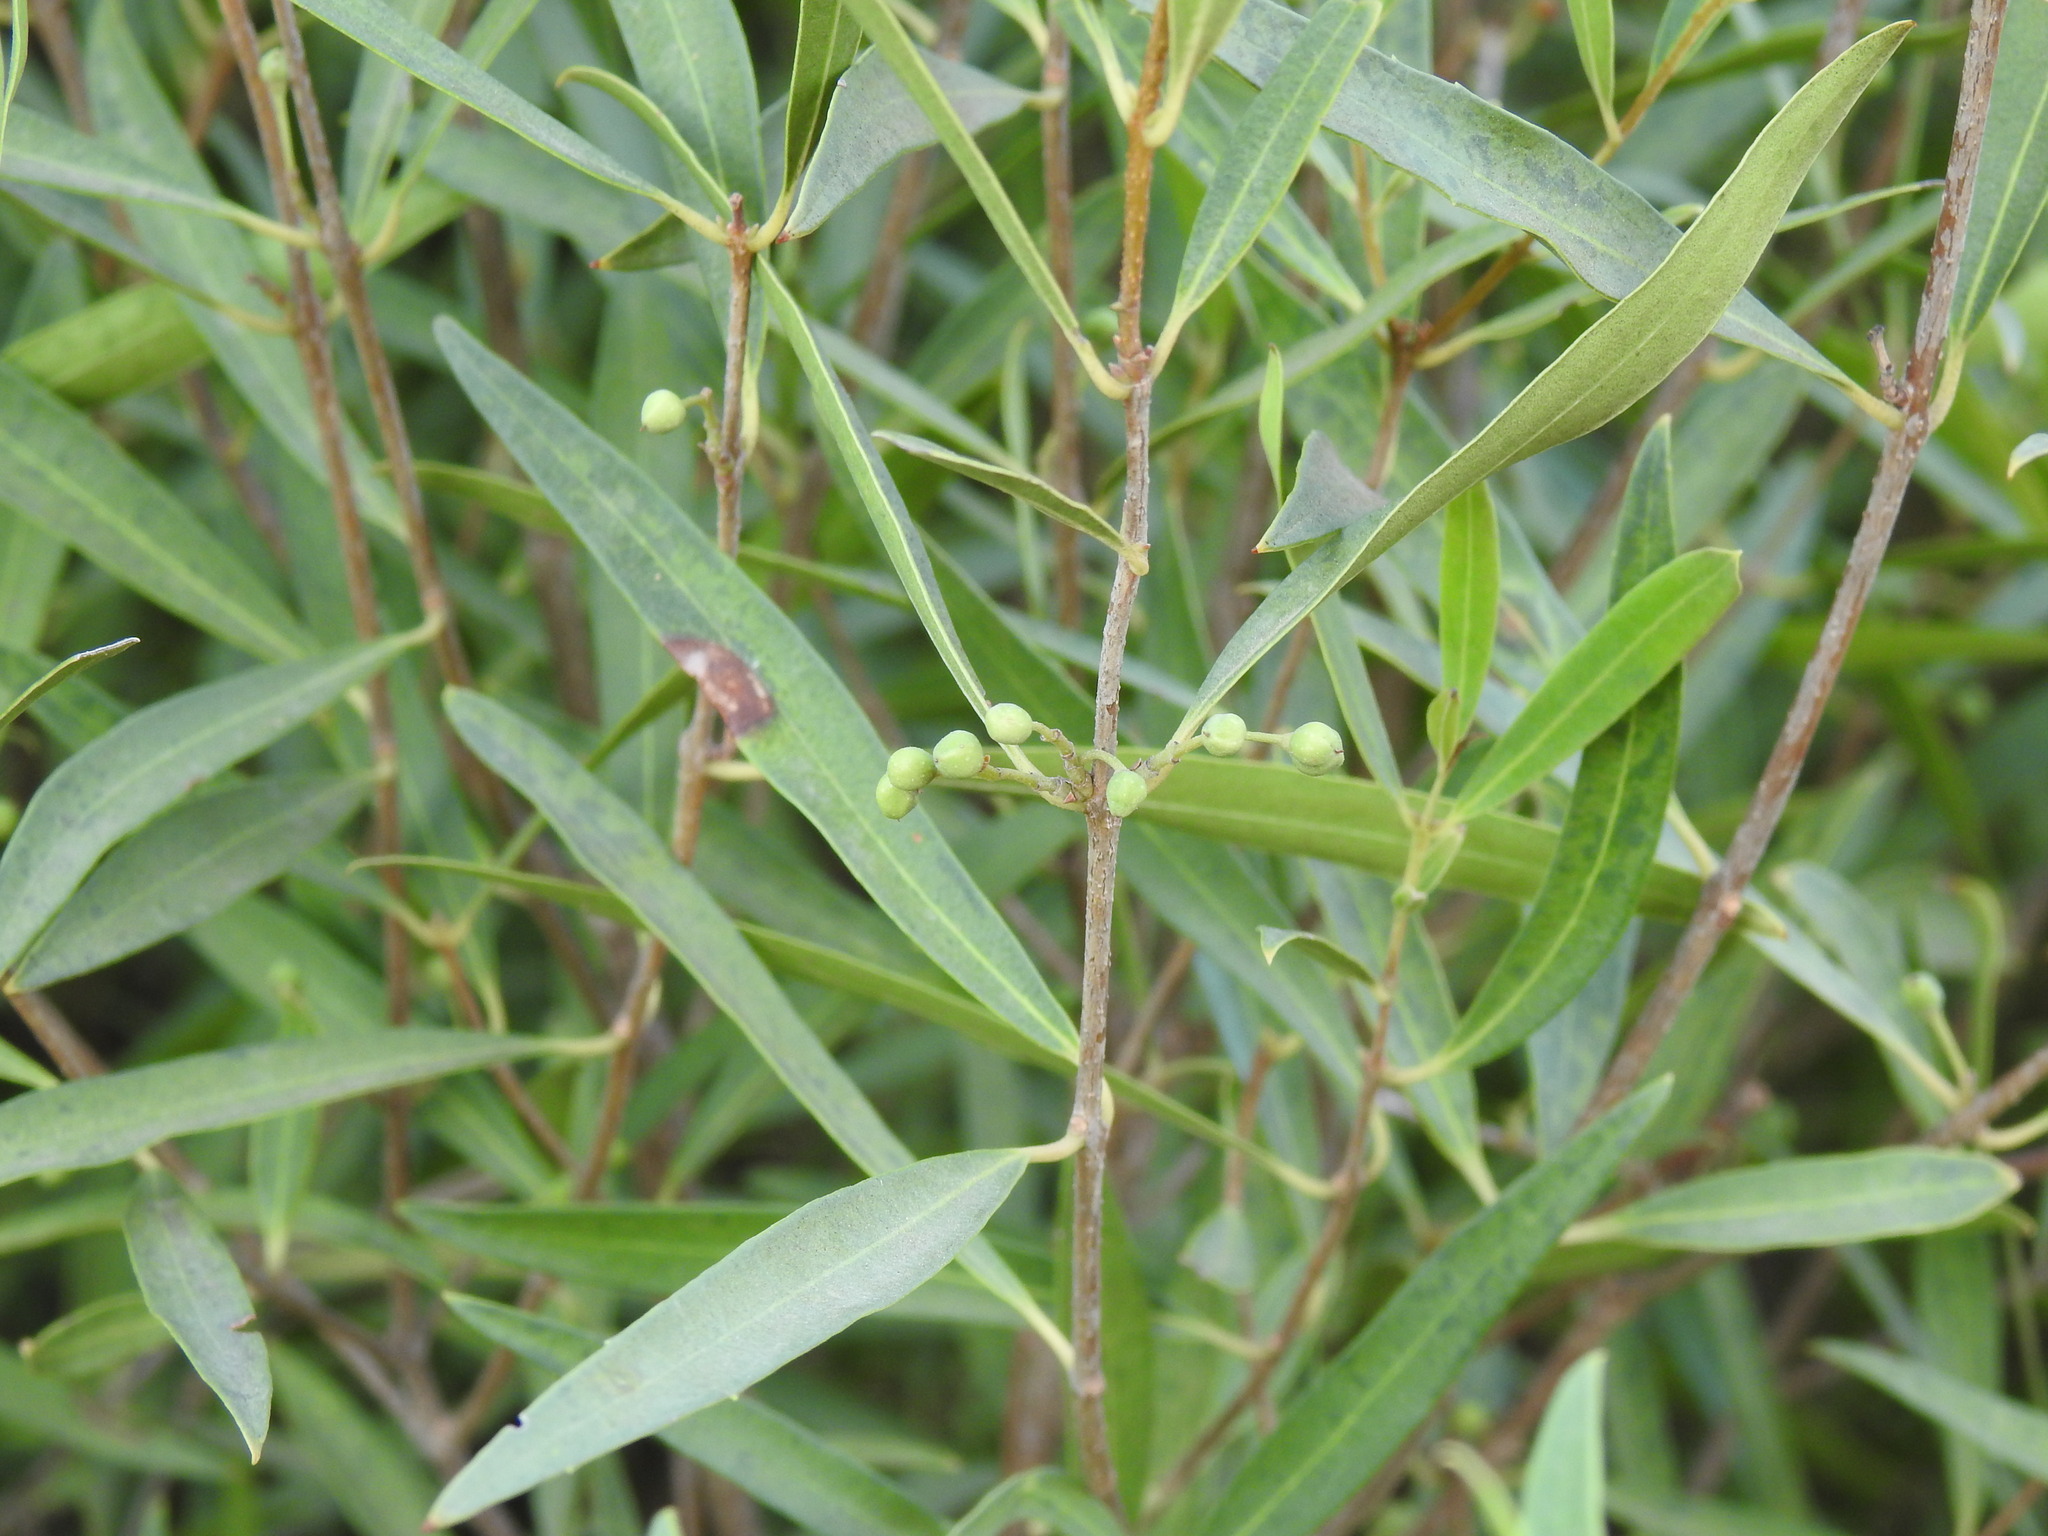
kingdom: Plantae
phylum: Tracheophyta
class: Magnoliopsida
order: Lamiales
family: Oleaceae
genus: Phillyrea
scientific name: Phillyrea angustifolia
